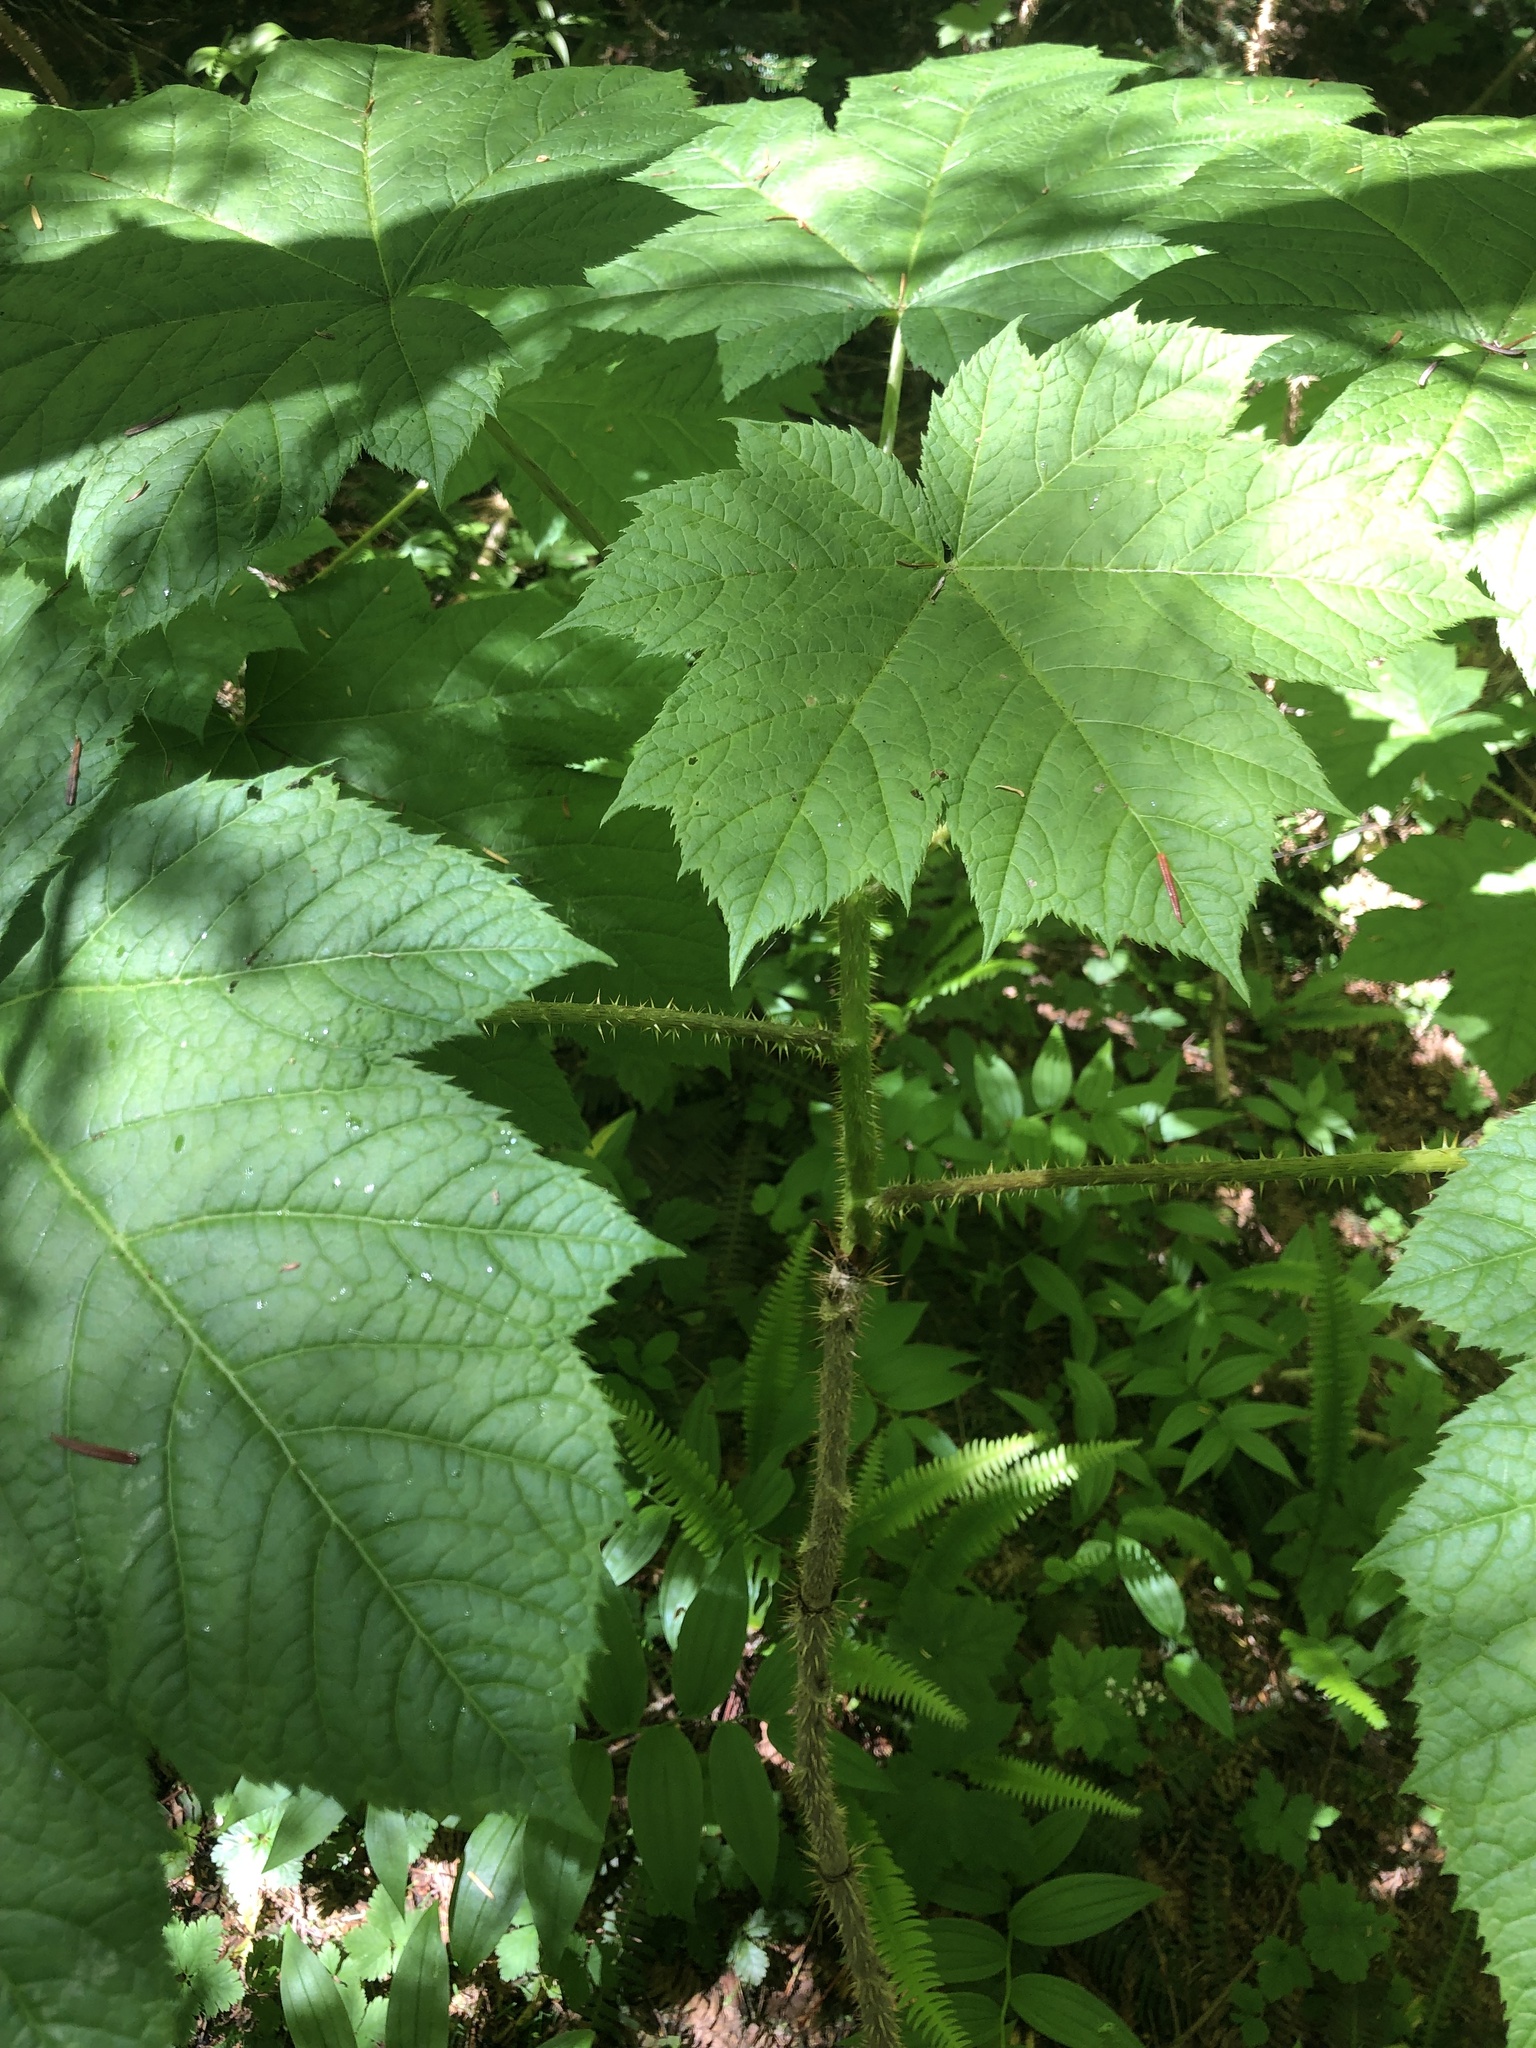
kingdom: Plantae
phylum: Tracheophyta
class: Magnoliopsida
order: Apiales
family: Araliaceae
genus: Oplopanax
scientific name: Oplopanax horridus
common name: Devil's walking-stick
